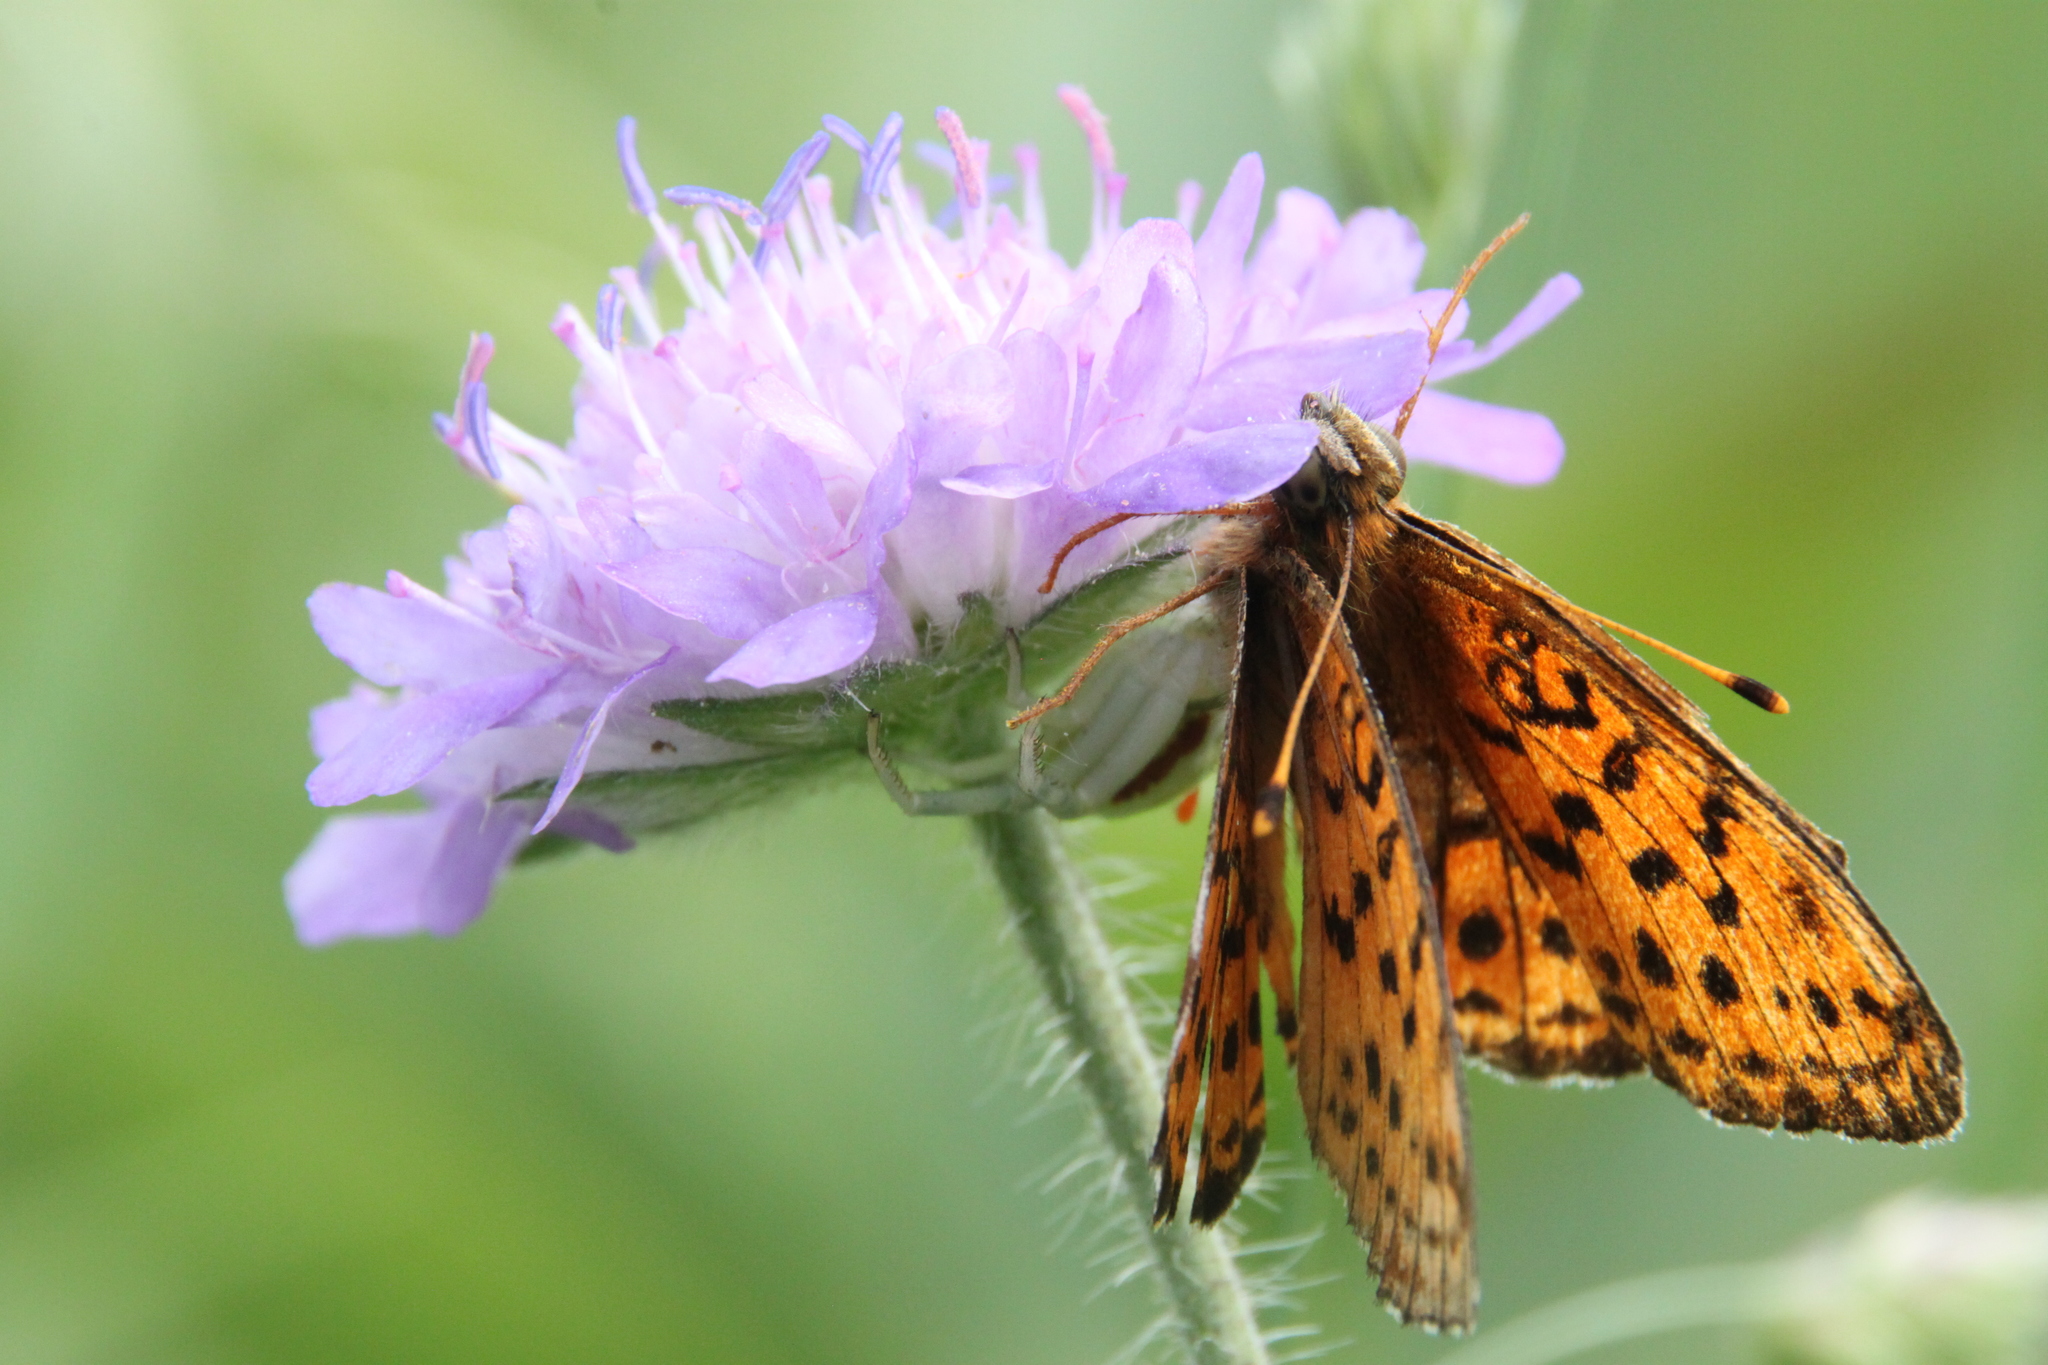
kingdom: Animalia
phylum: Arthropoda
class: Insecta
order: Lepidoptera
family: Nymphalidae
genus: Brenthis
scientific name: Brenthis ino
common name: Lesser marbled fritillary
